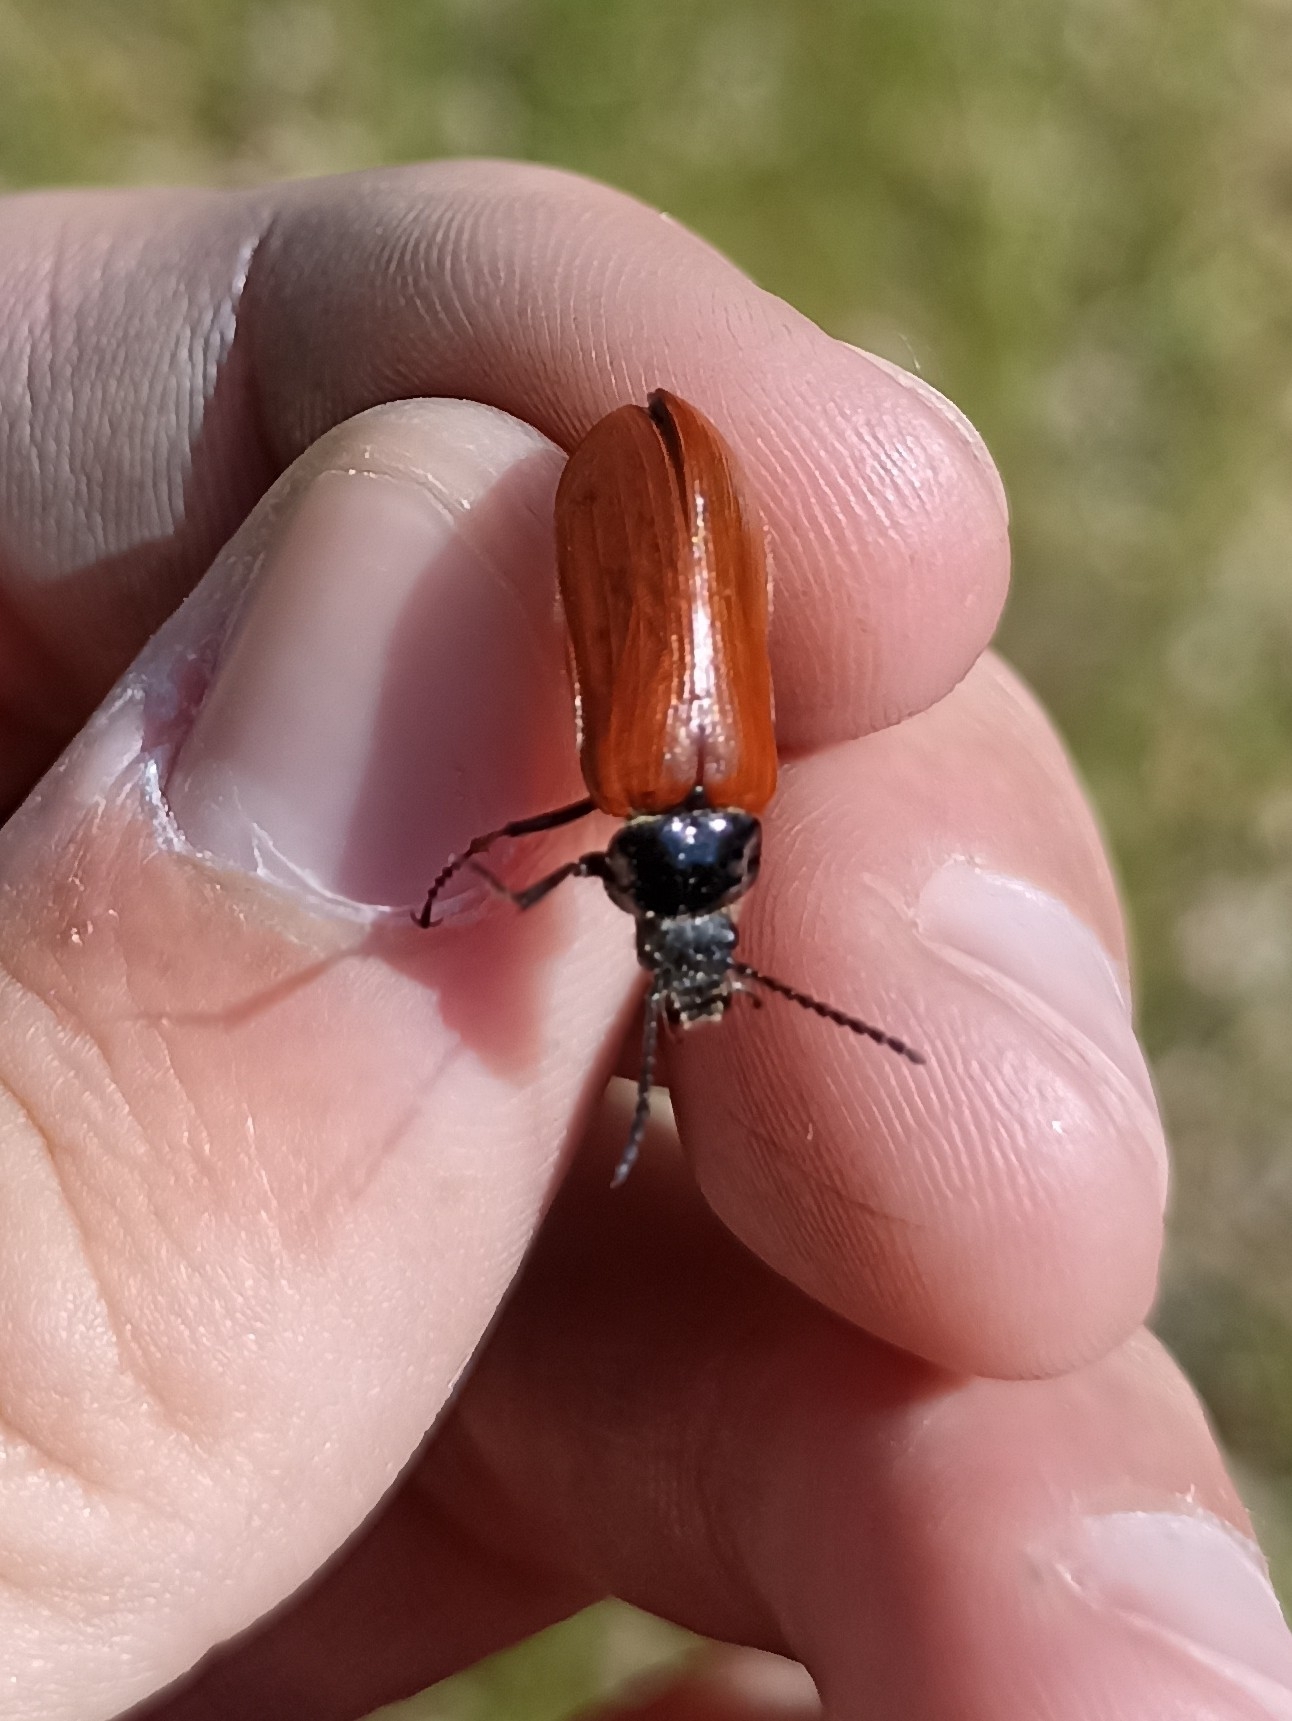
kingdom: Animalia
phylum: Arthropoda
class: Insecta
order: Coleoptera
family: Tenebrionidae
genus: Omophlus
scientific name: Omophlus lepturoides
